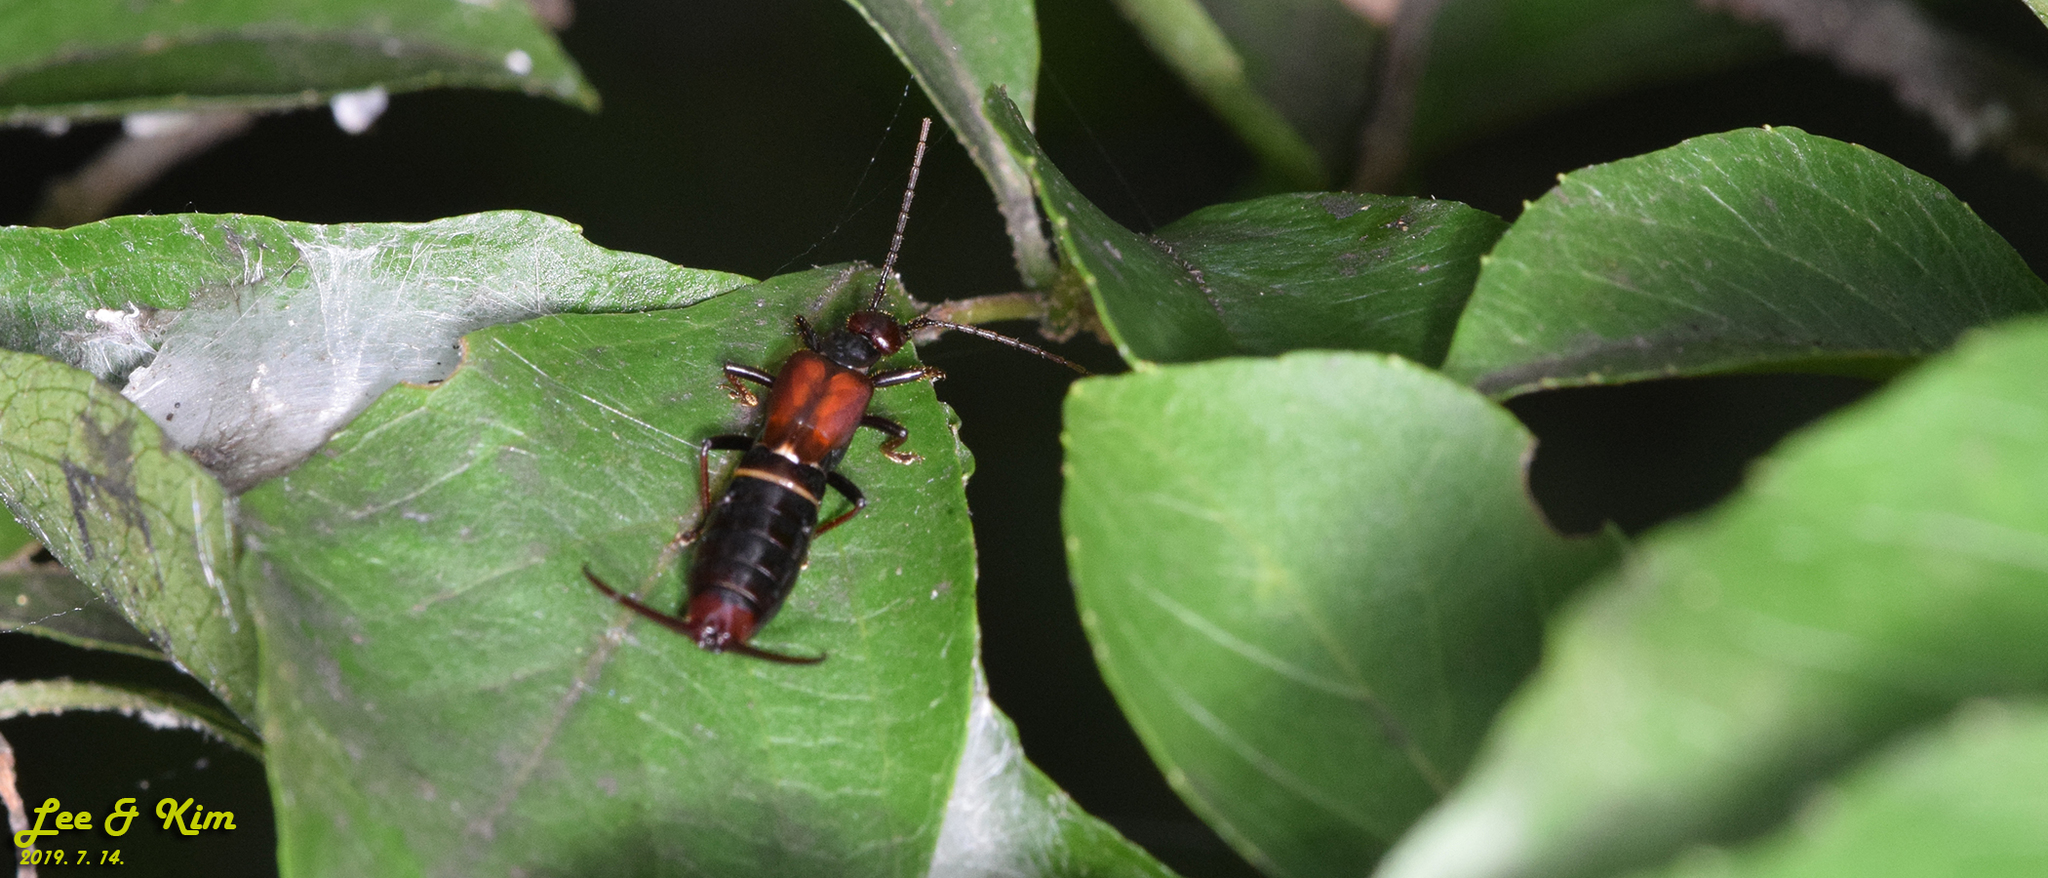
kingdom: Animalia
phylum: Arthropoda
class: Insecta
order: Dermaptera
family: Forficulidae
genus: Timomenus
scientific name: Timomenus komarovi
